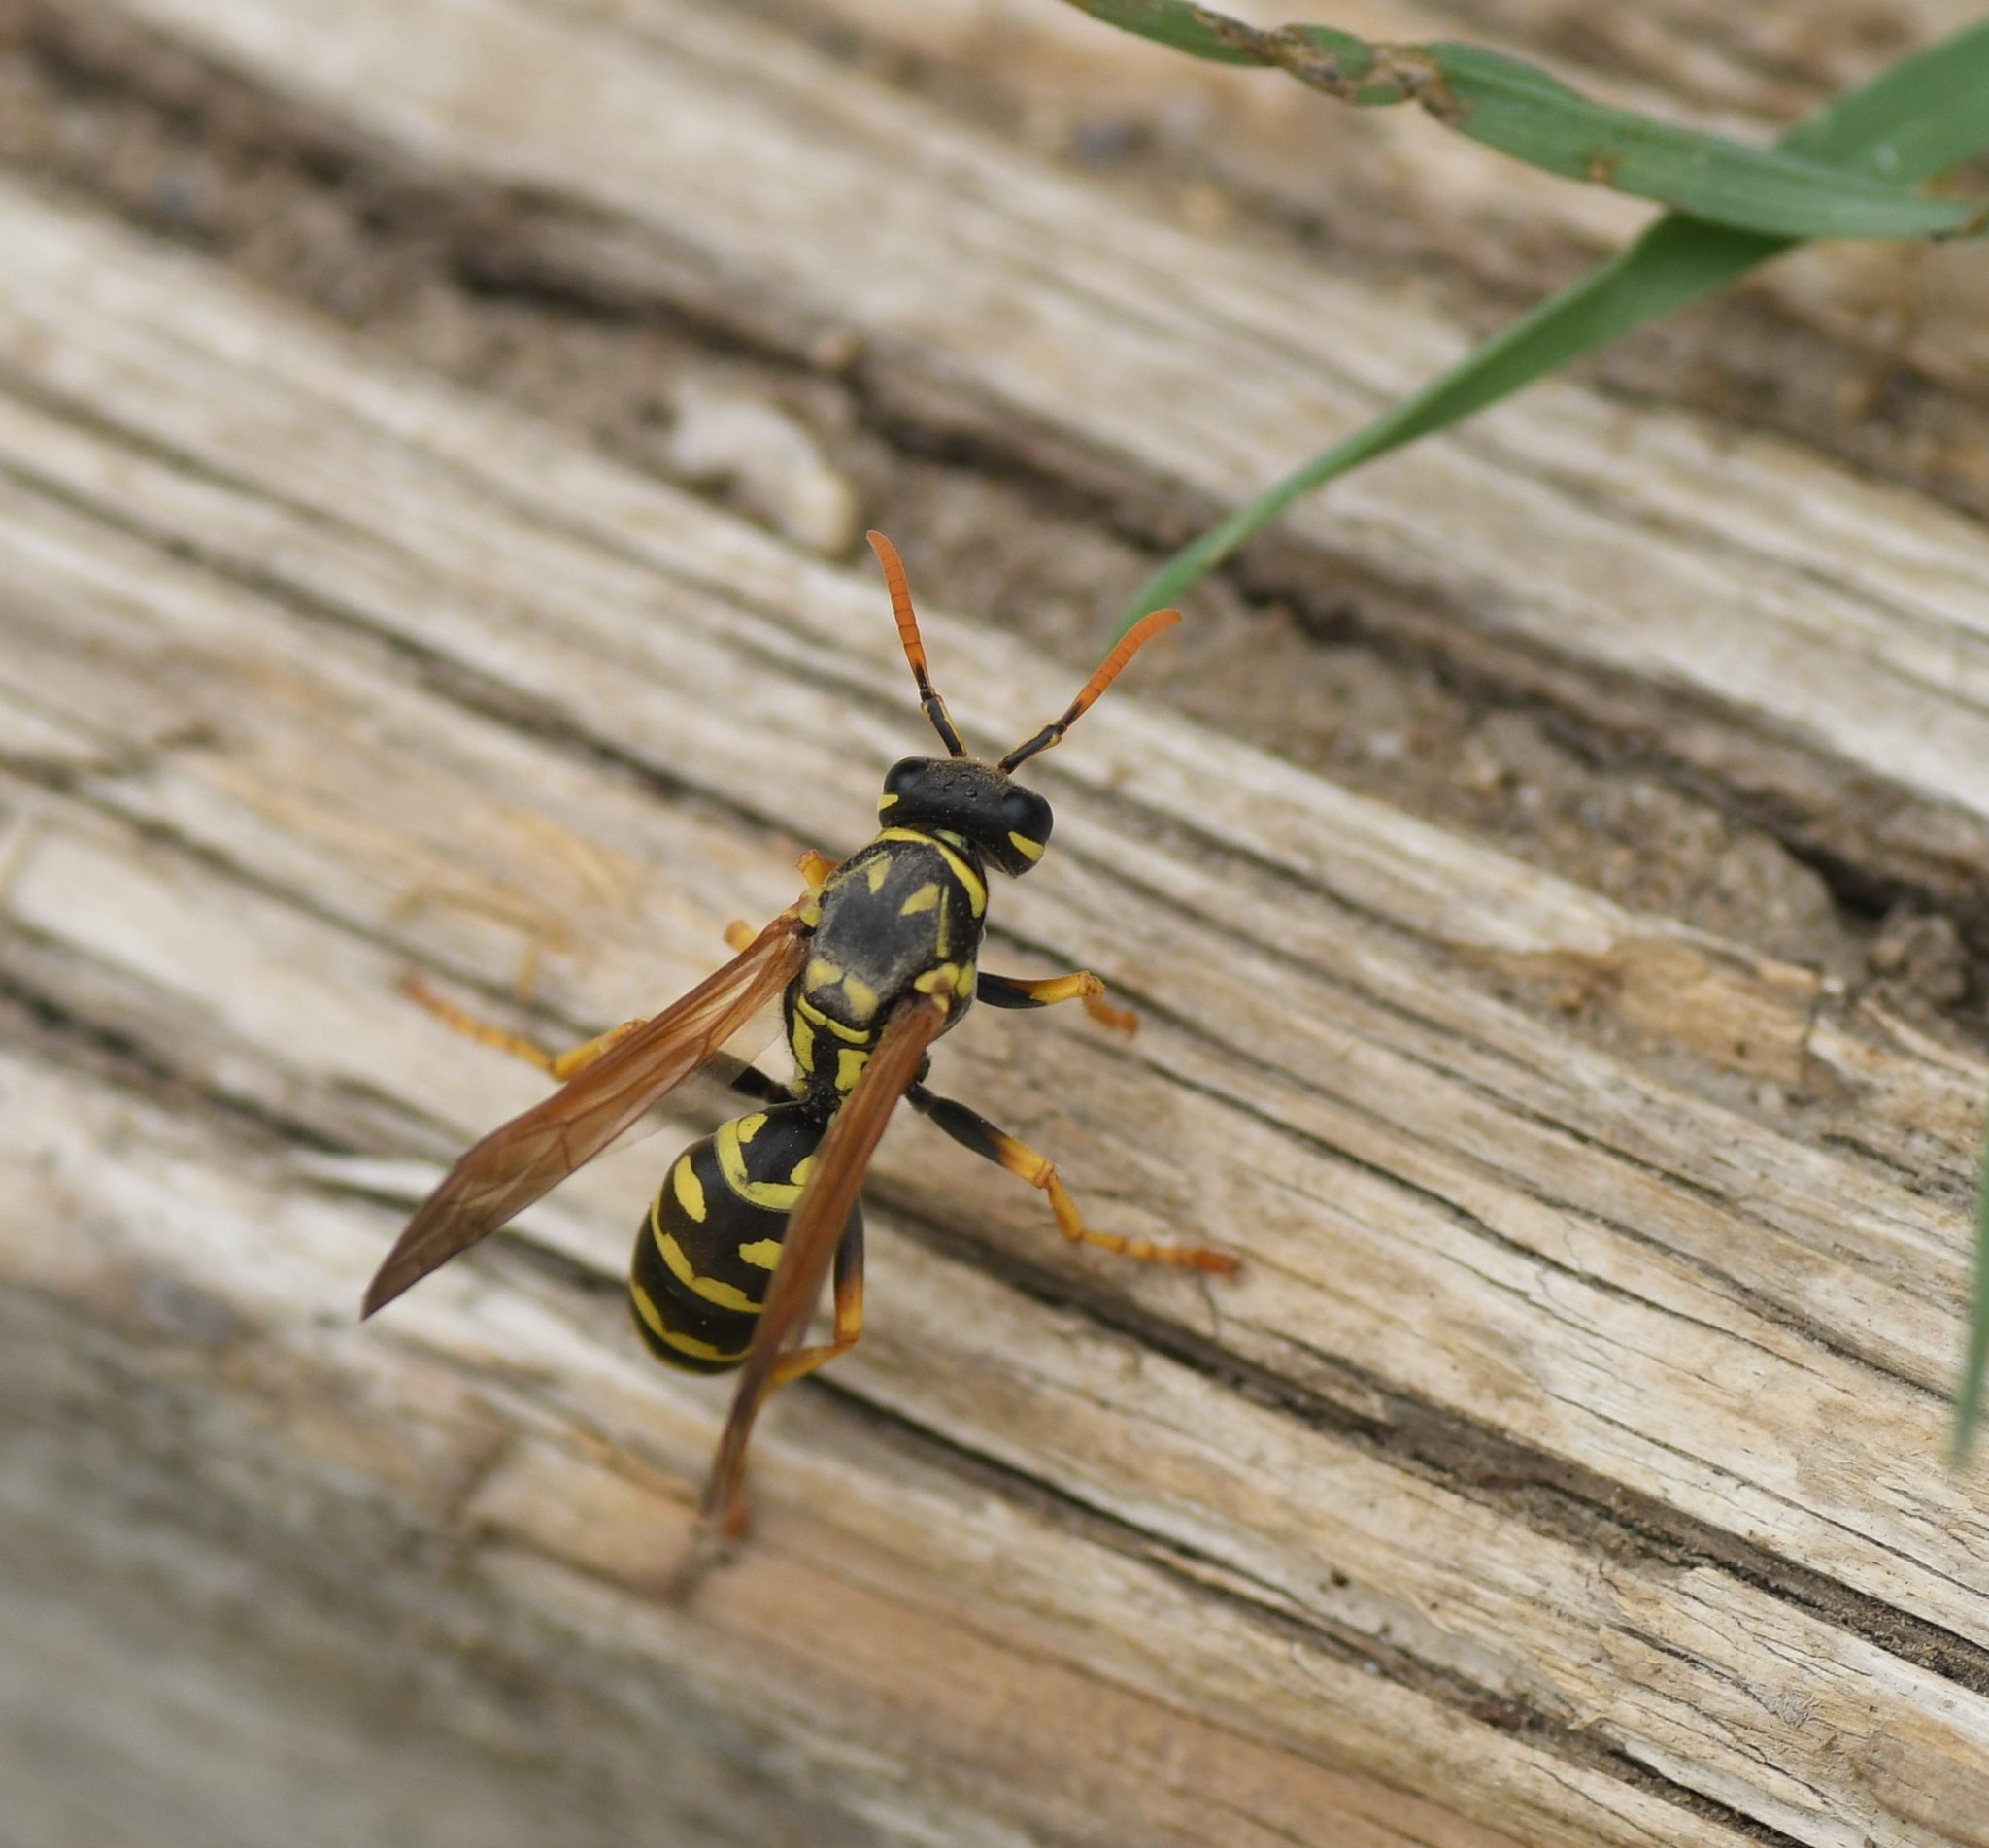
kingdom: Animalia
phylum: Arthropoda
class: Insecta
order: Hymenoptera
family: Eumenidae
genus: Polistes
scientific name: Polistes dominula
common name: Paper wasp
